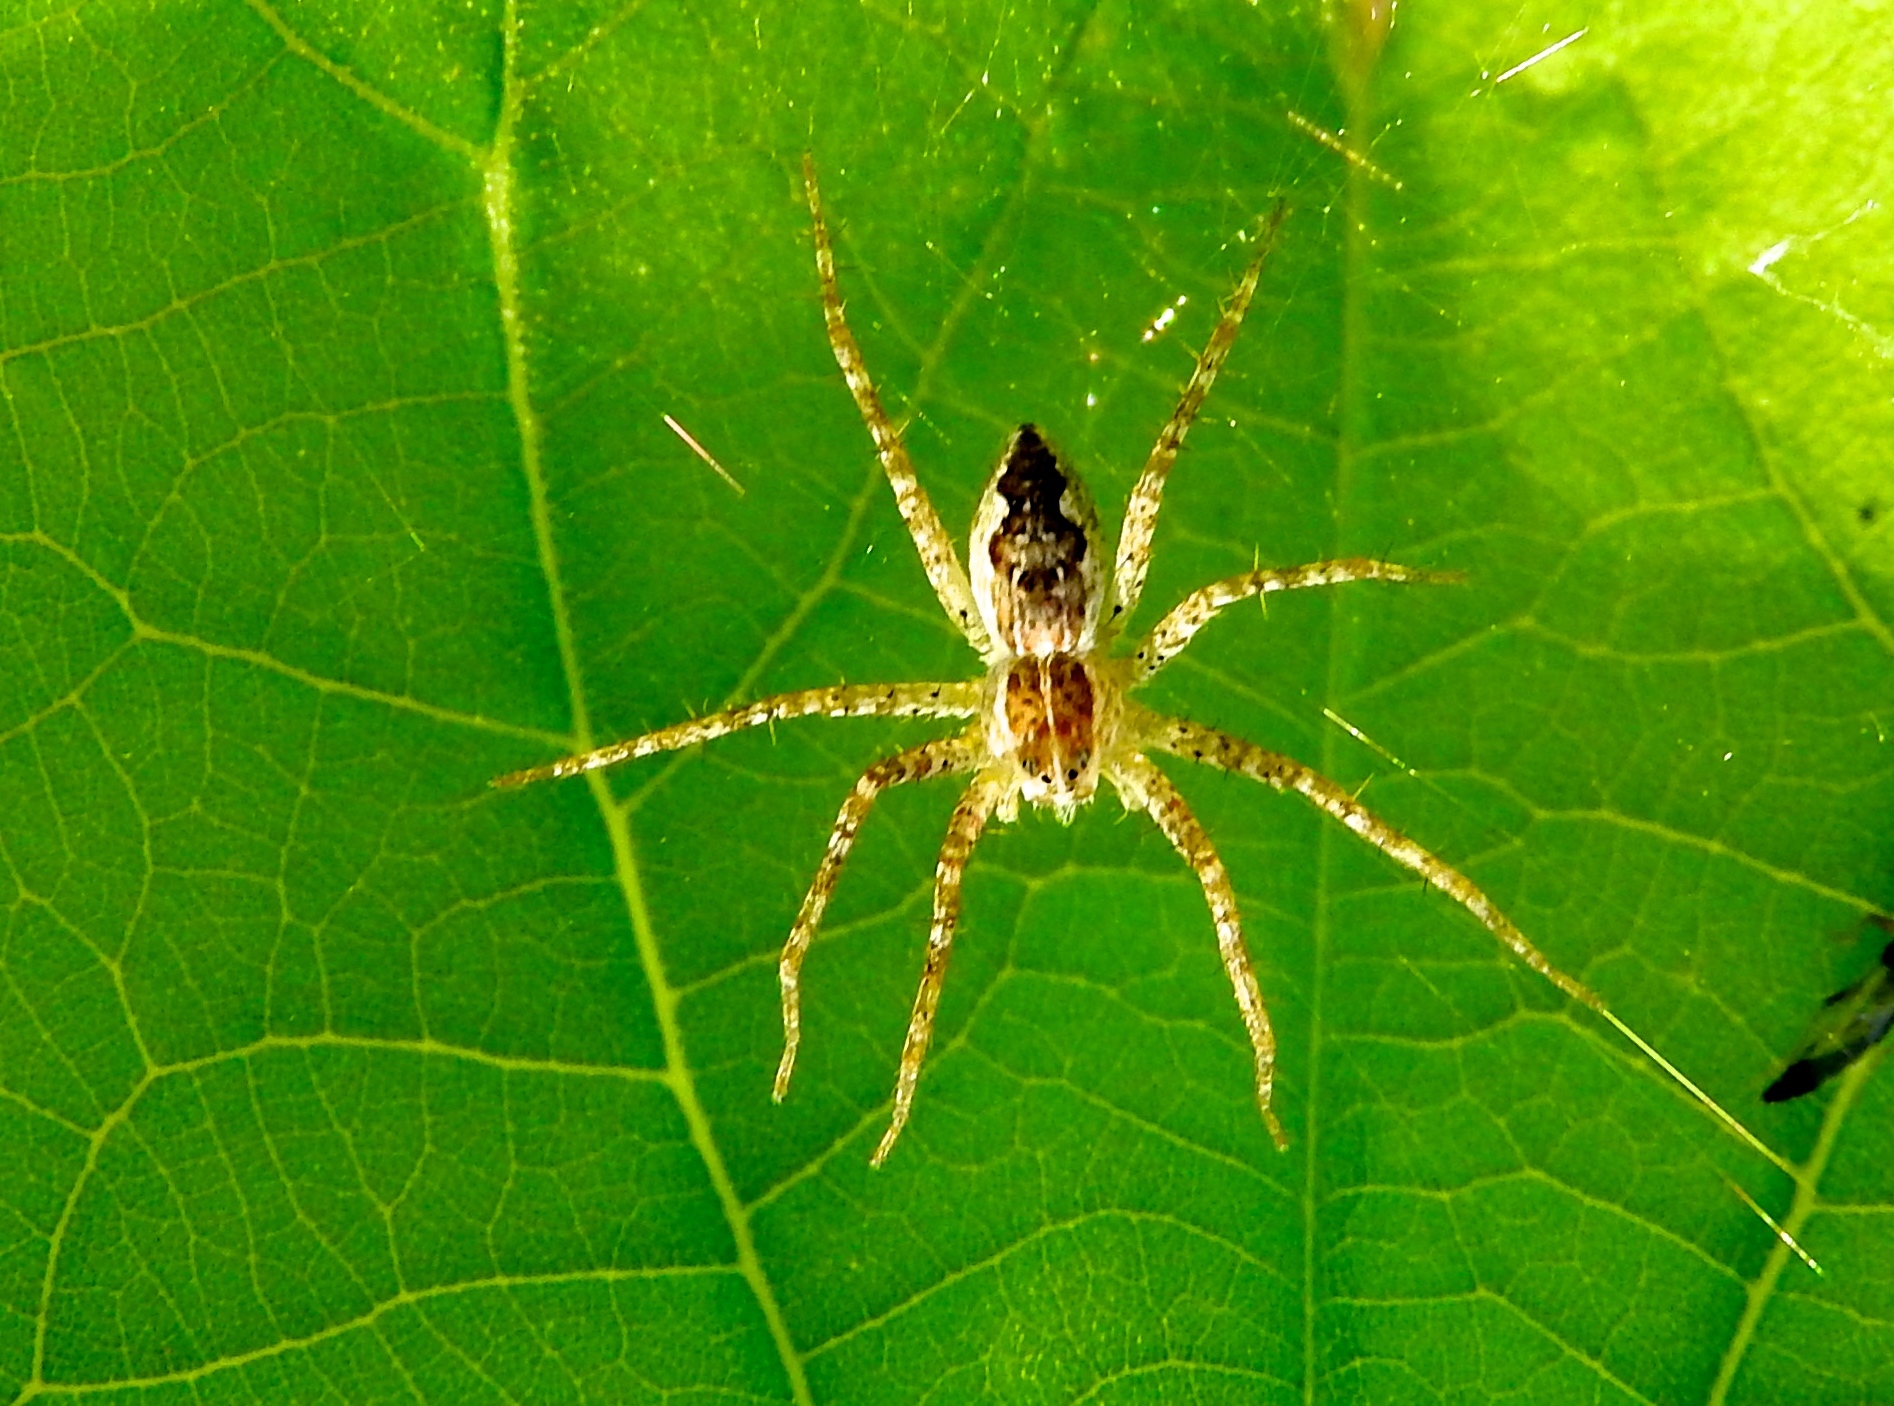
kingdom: Animalia
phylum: Arthropoda
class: Arachnida
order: Araneae
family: Pisauridae
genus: Tinus
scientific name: Tinus
